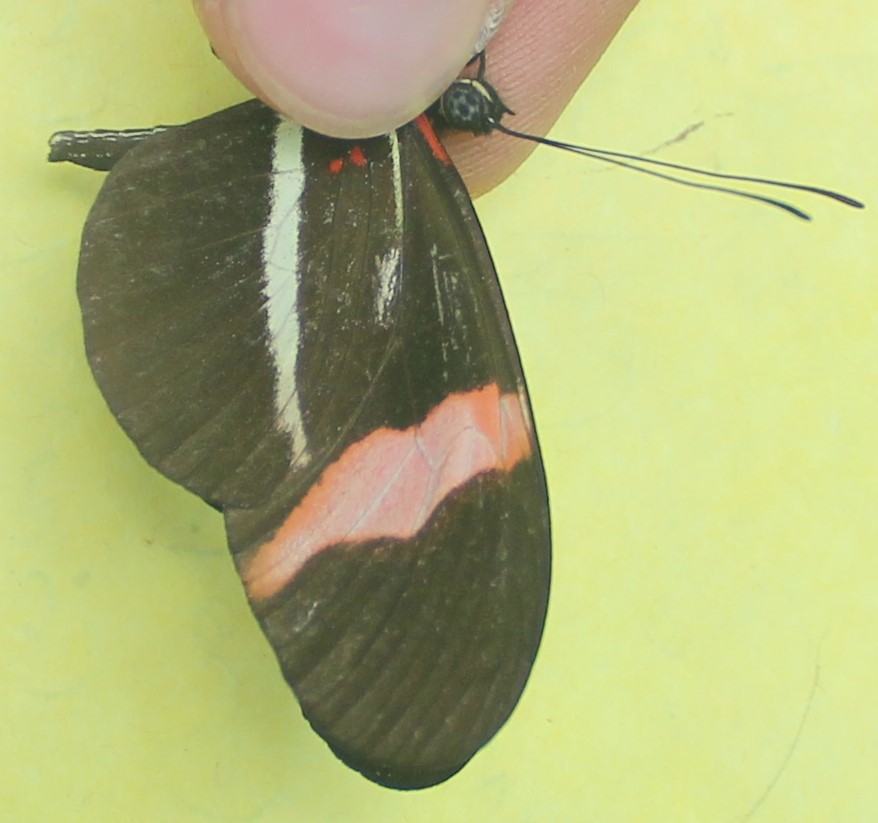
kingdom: Animalia
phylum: Arthropoda
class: Insecta
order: Lepidoptera
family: Nymphalidae
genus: Tirumala
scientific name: Tirumala petiverana
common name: Blue monarch
